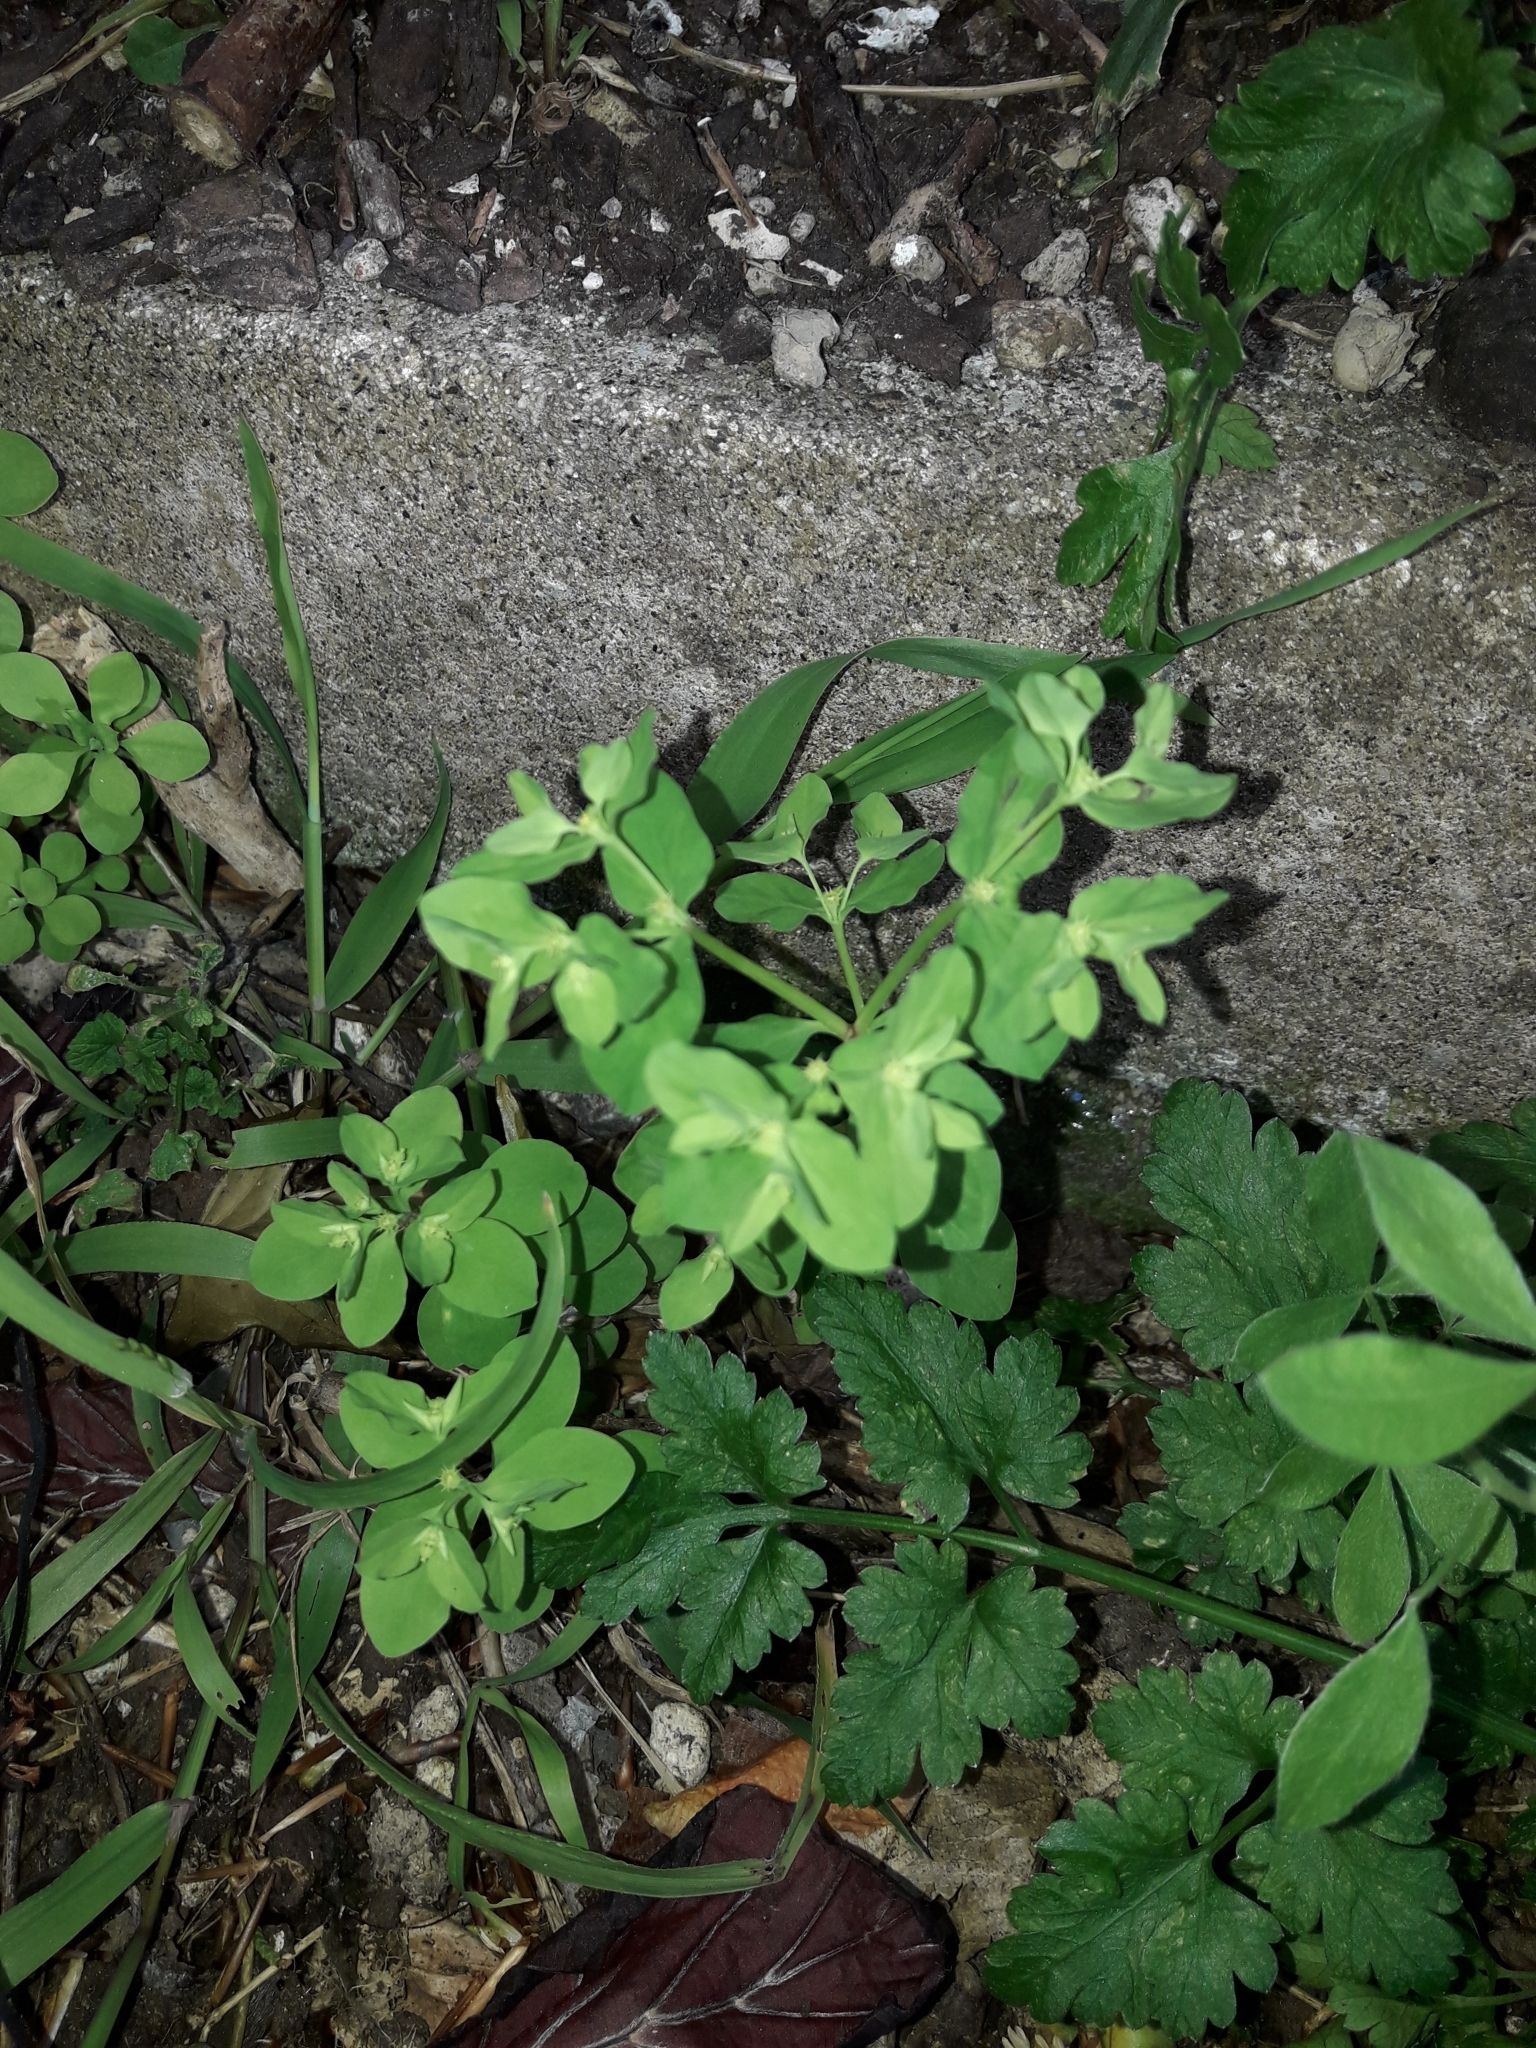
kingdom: Plantae
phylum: Tracheophyta
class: Magnoliopsida
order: Malpighiales
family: Euphorbiaceae
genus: Euphorbia
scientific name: Euphorbia peplus
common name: Petty spurge
